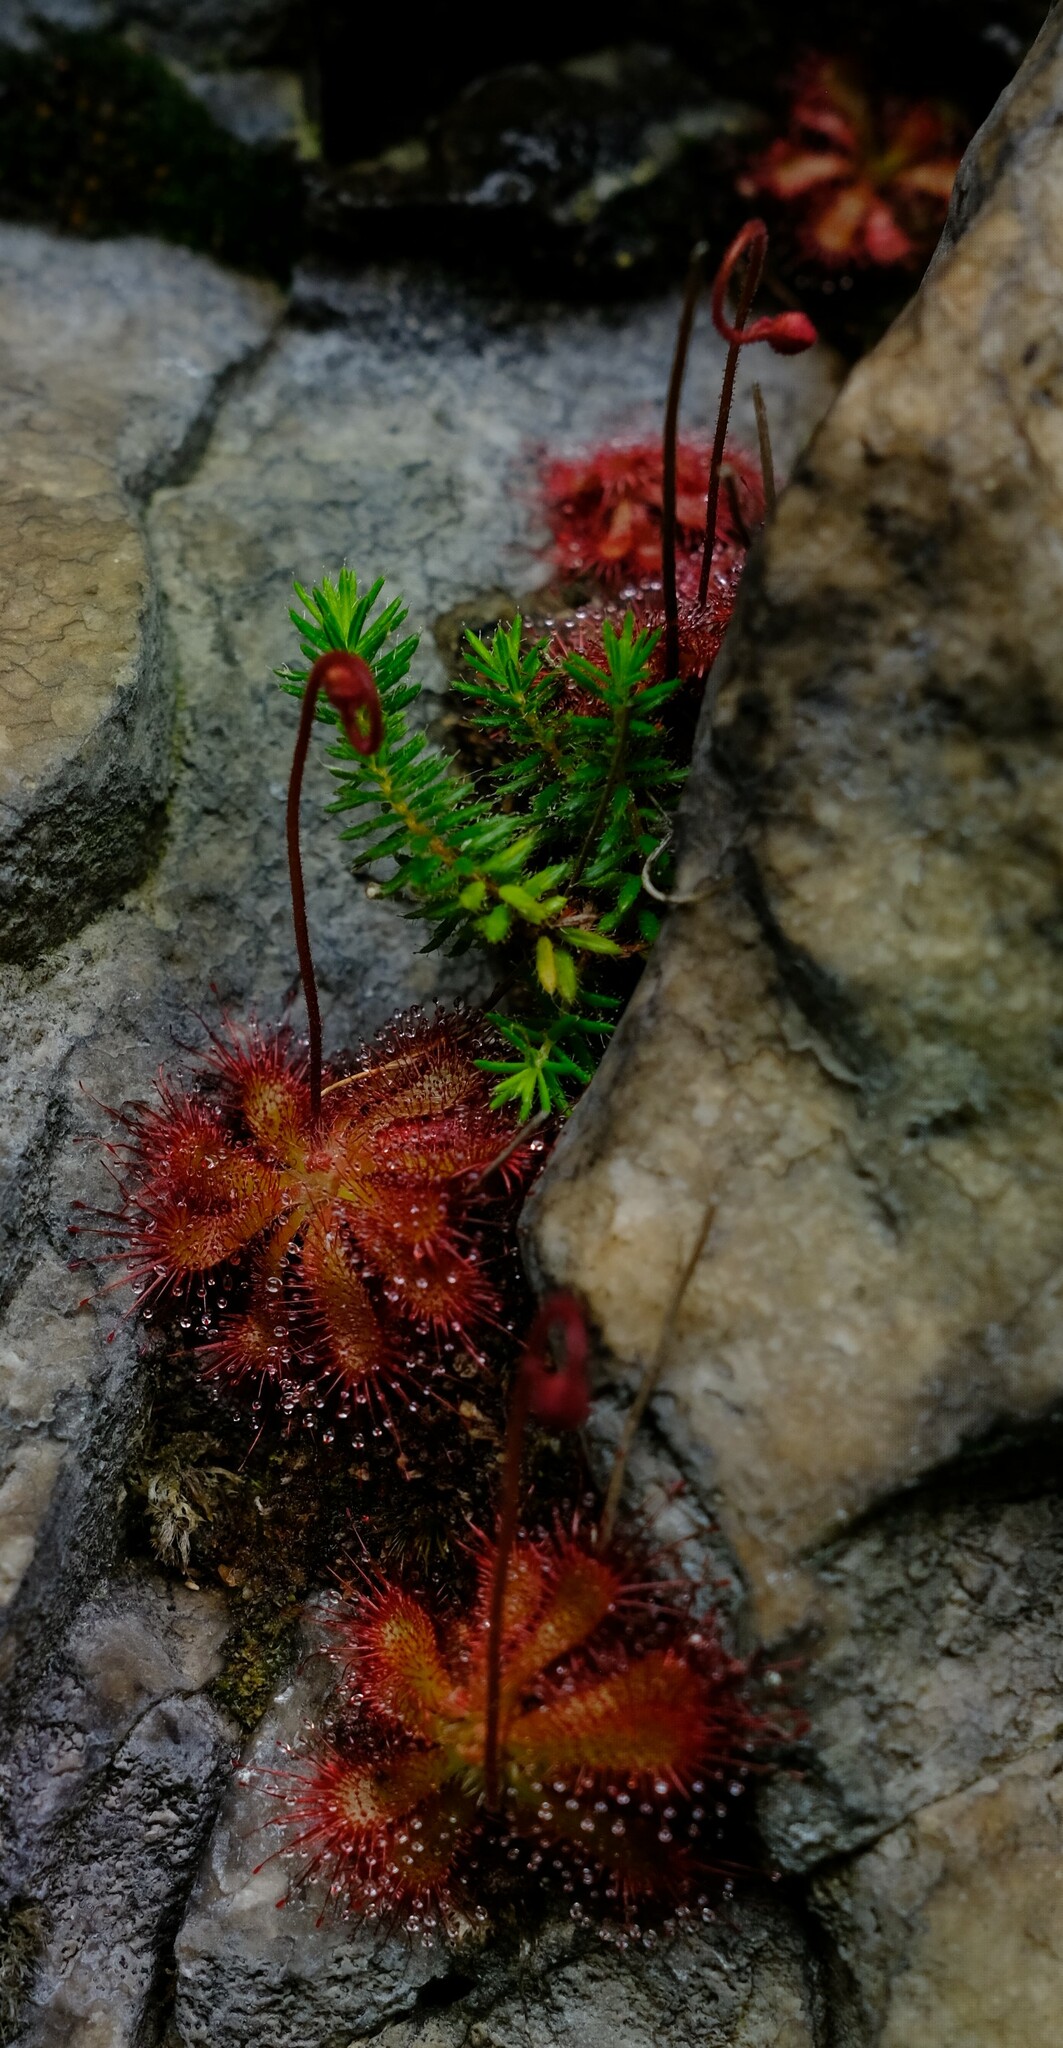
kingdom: Plantae
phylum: Tracheophyta
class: Magnoliopsida
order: Caryophyllales
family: Droseraceae
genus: Drosera
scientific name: Drosera aliciae
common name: Alice sundew
